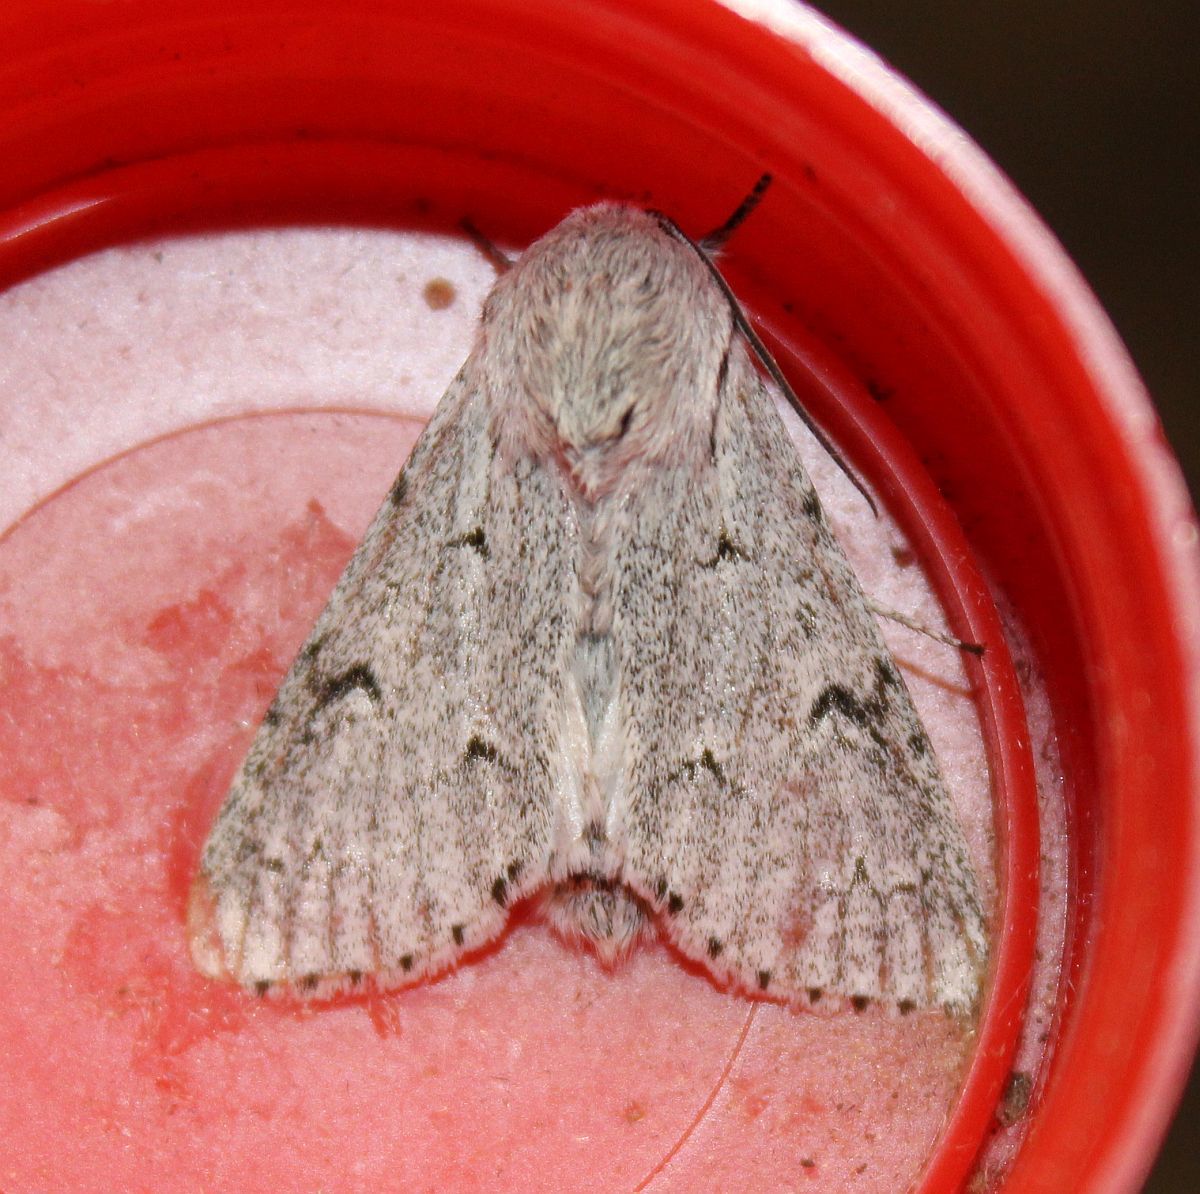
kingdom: Animalia
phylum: Arthropoda
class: Insecta
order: Lepidoptera
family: Noctuidae
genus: Acronicta
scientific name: Acronicta leporina
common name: Miller
